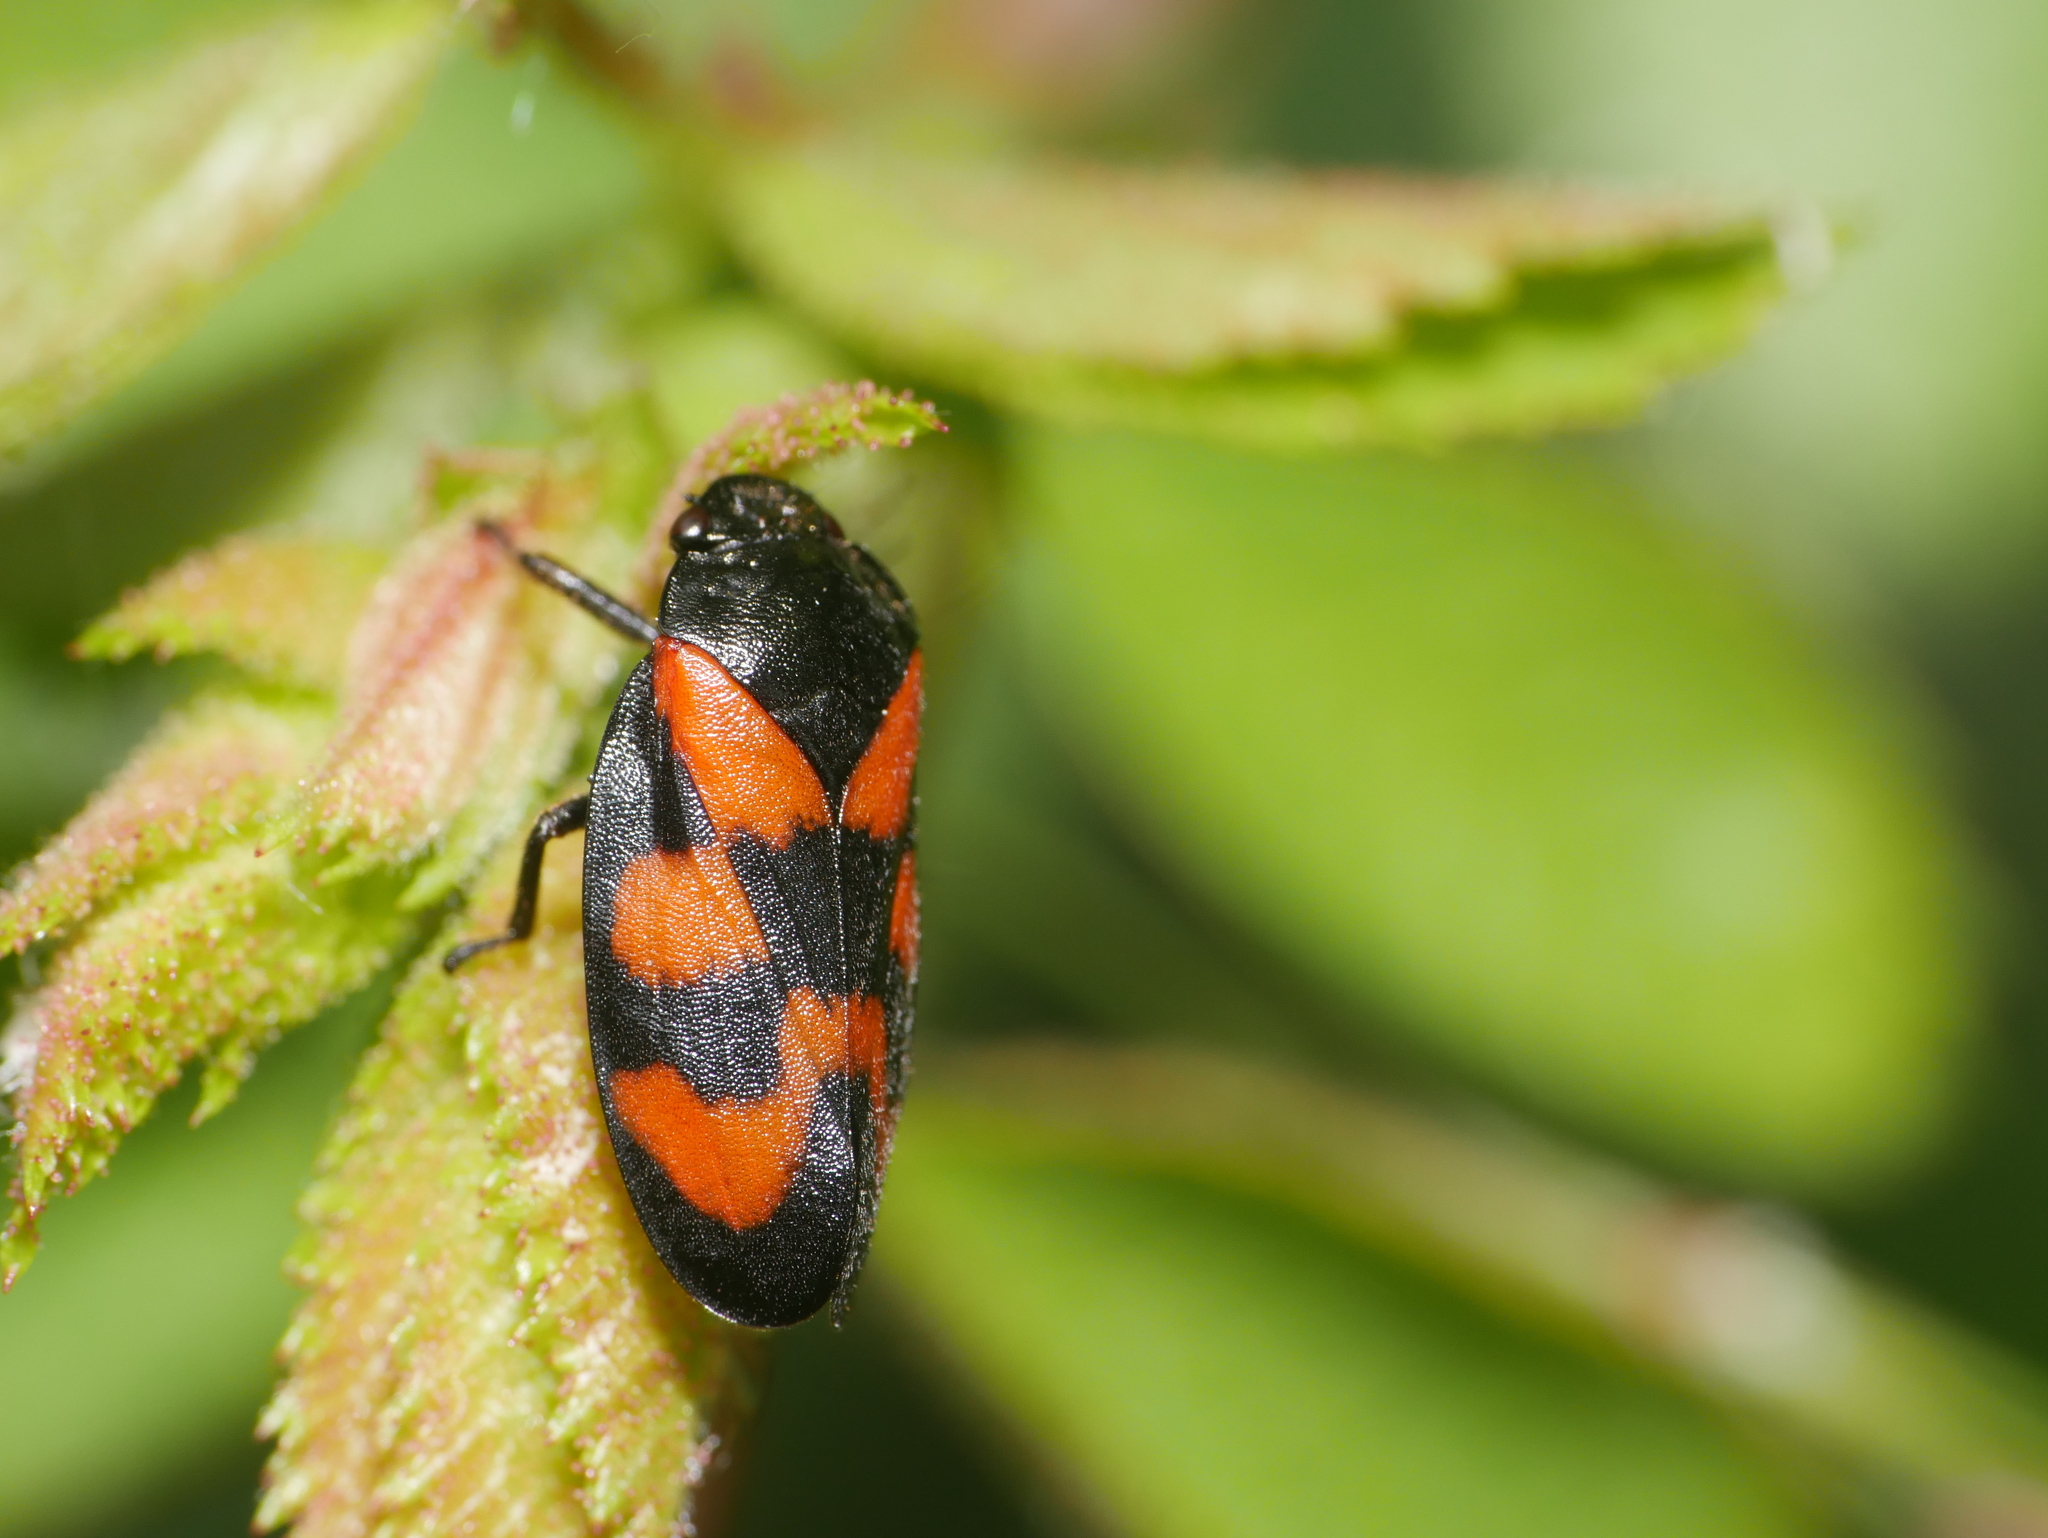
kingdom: Animalia
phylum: Arthropoda
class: Insecta
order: Hemiptera
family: Cercopidae
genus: Cercopis
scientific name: Cercopis vulnerata
